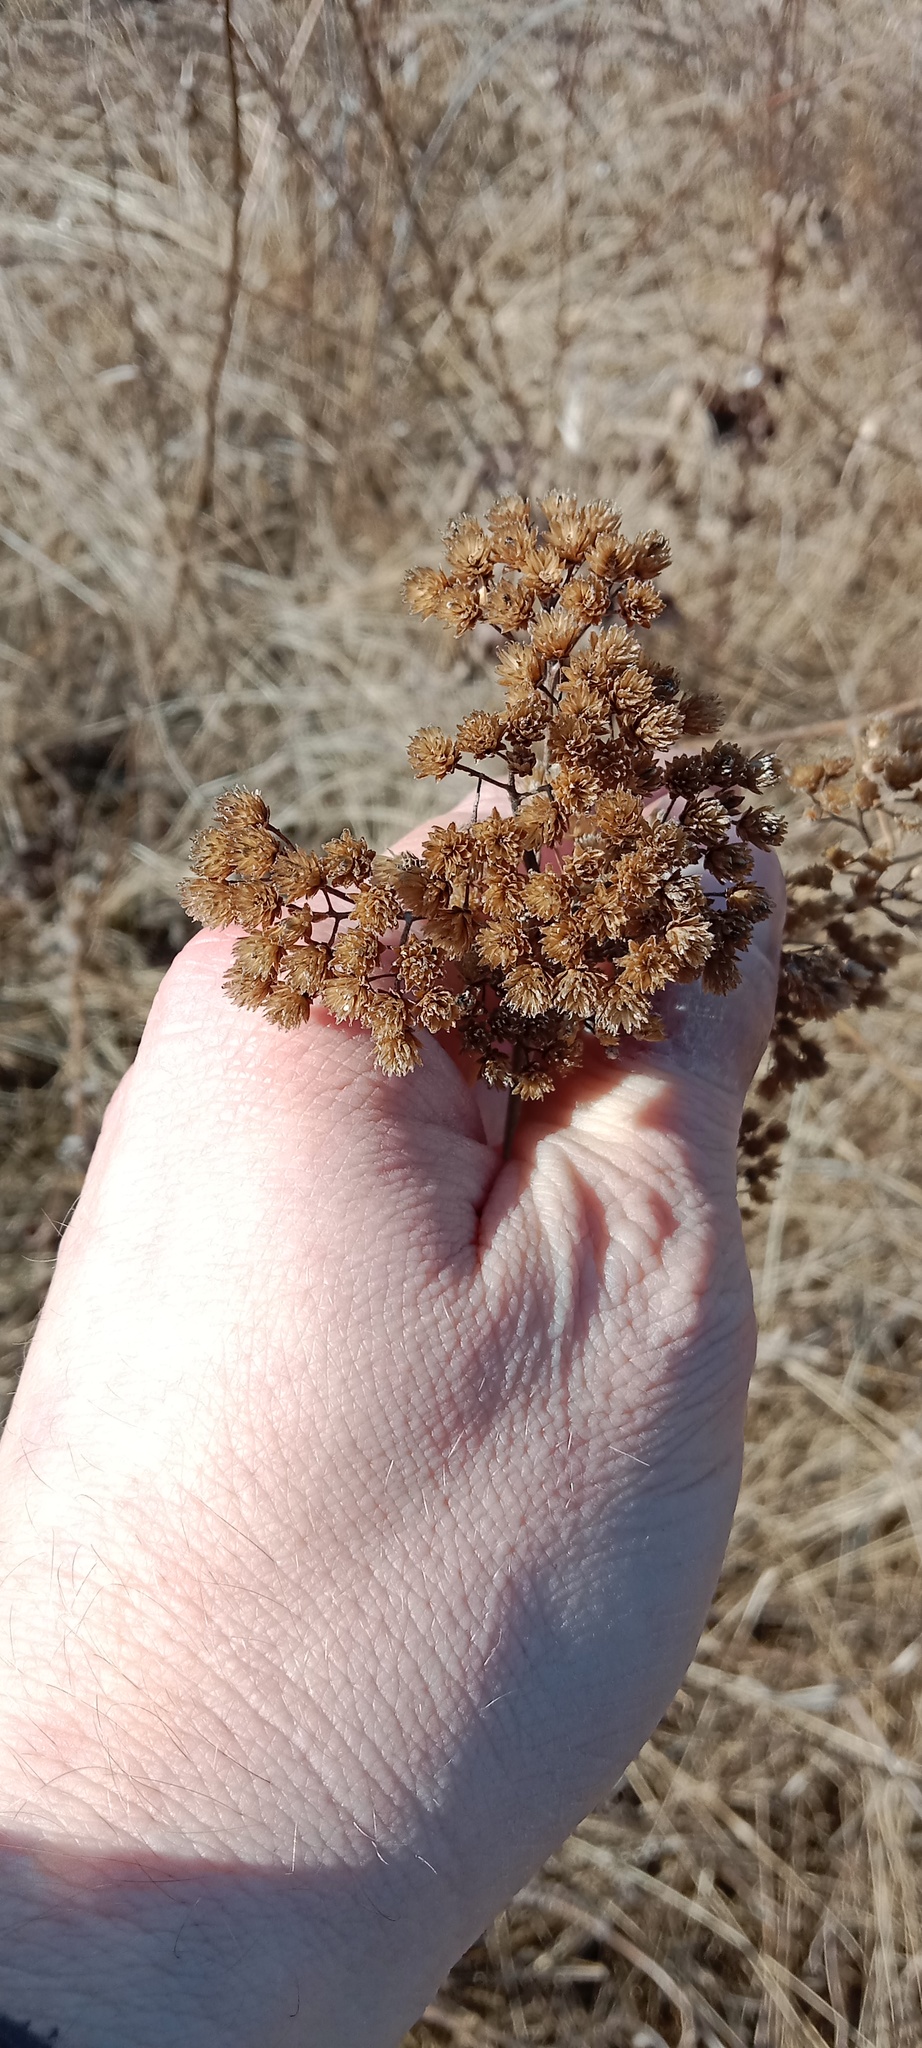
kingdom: Plantae
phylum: Tracheophyta
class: Magnoliopsida
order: Asterales
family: Asteraceae
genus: Achillea
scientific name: Achillea millefolium
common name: Yarrow
